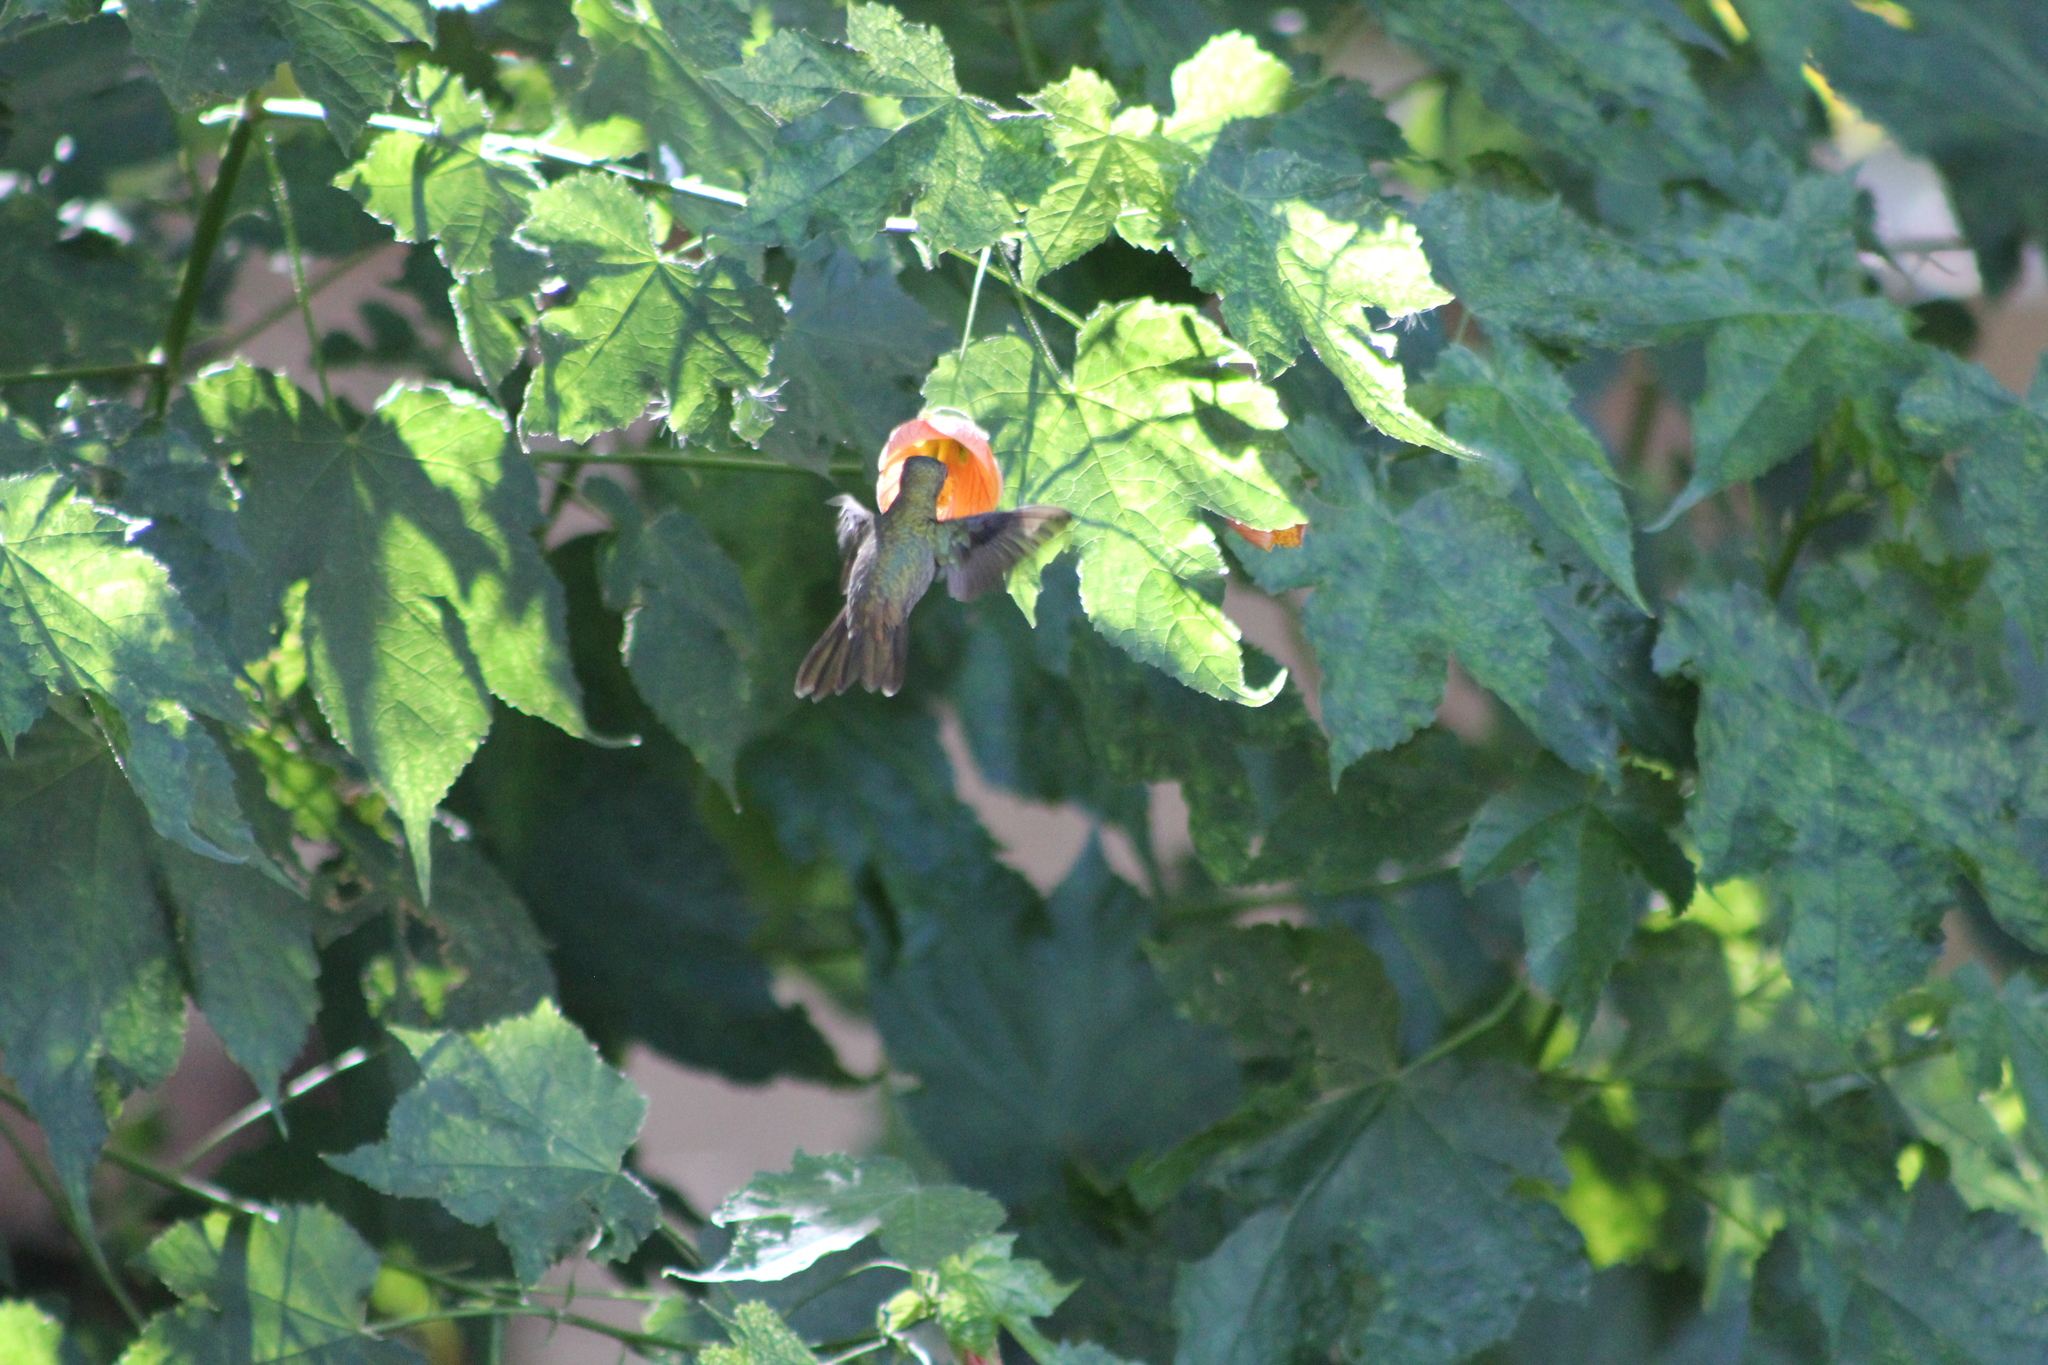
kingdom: Animalia
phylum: Chordata
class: Aves
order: Apodiformes
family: Trochilidae
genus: Hylocharis
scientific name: Hylocharis chrysura
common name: Gilded sapphire
